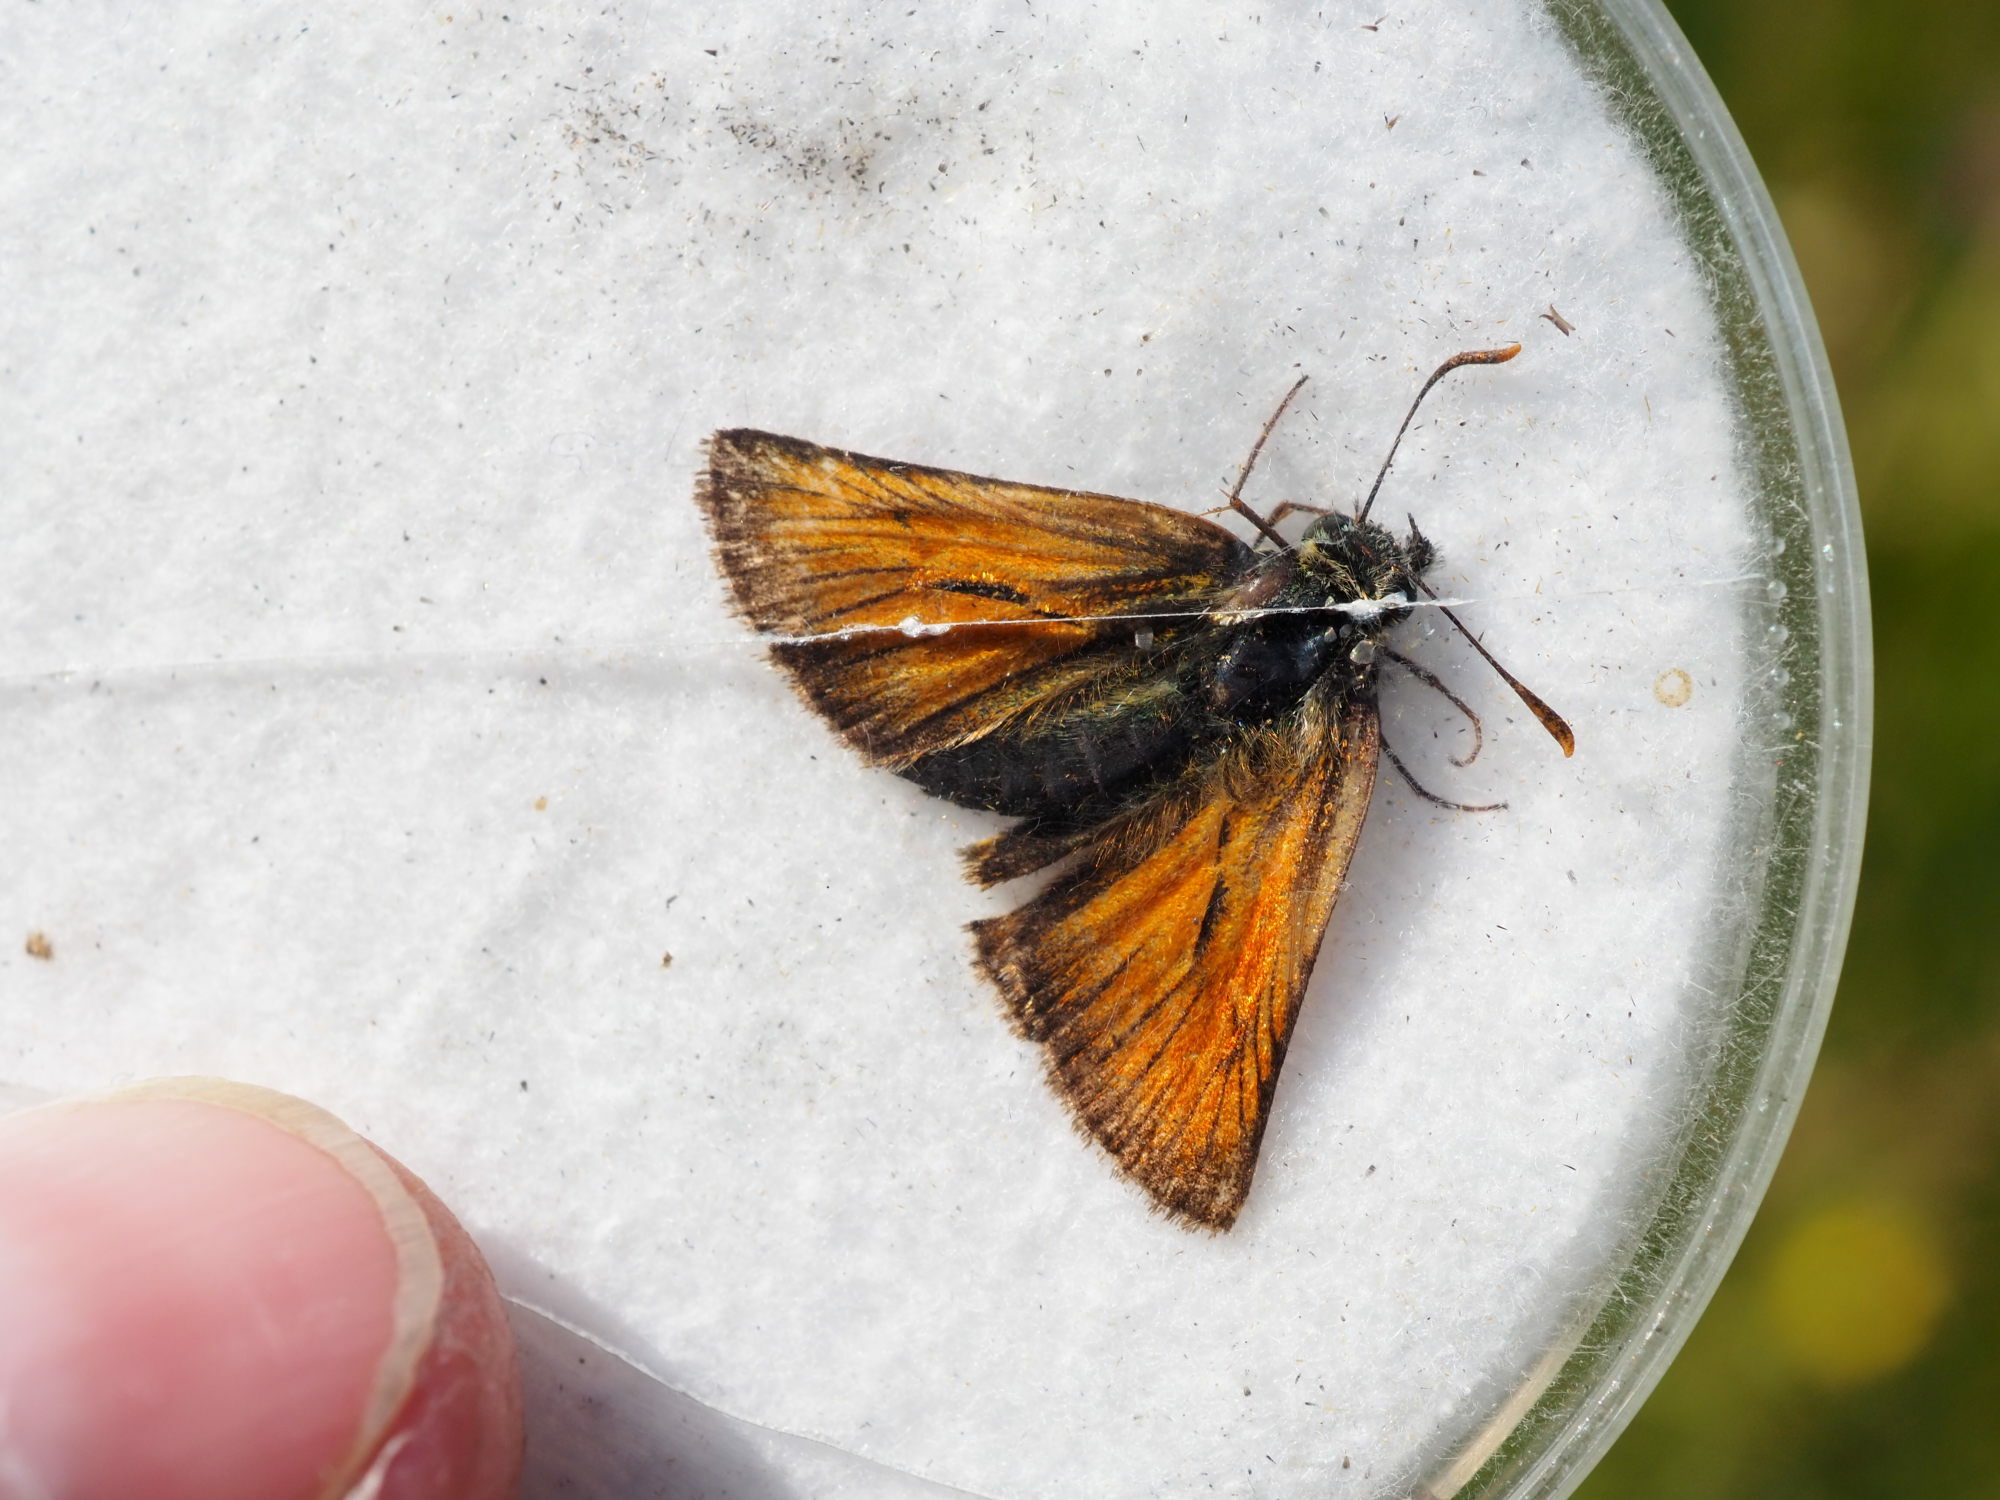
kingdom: Animalia
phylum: Arthropoda
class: Insecta
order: Lepidoptera
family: Hesperiidae
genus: Thymelicus
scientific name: Thymelicus sylvestris
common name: Small skipper
